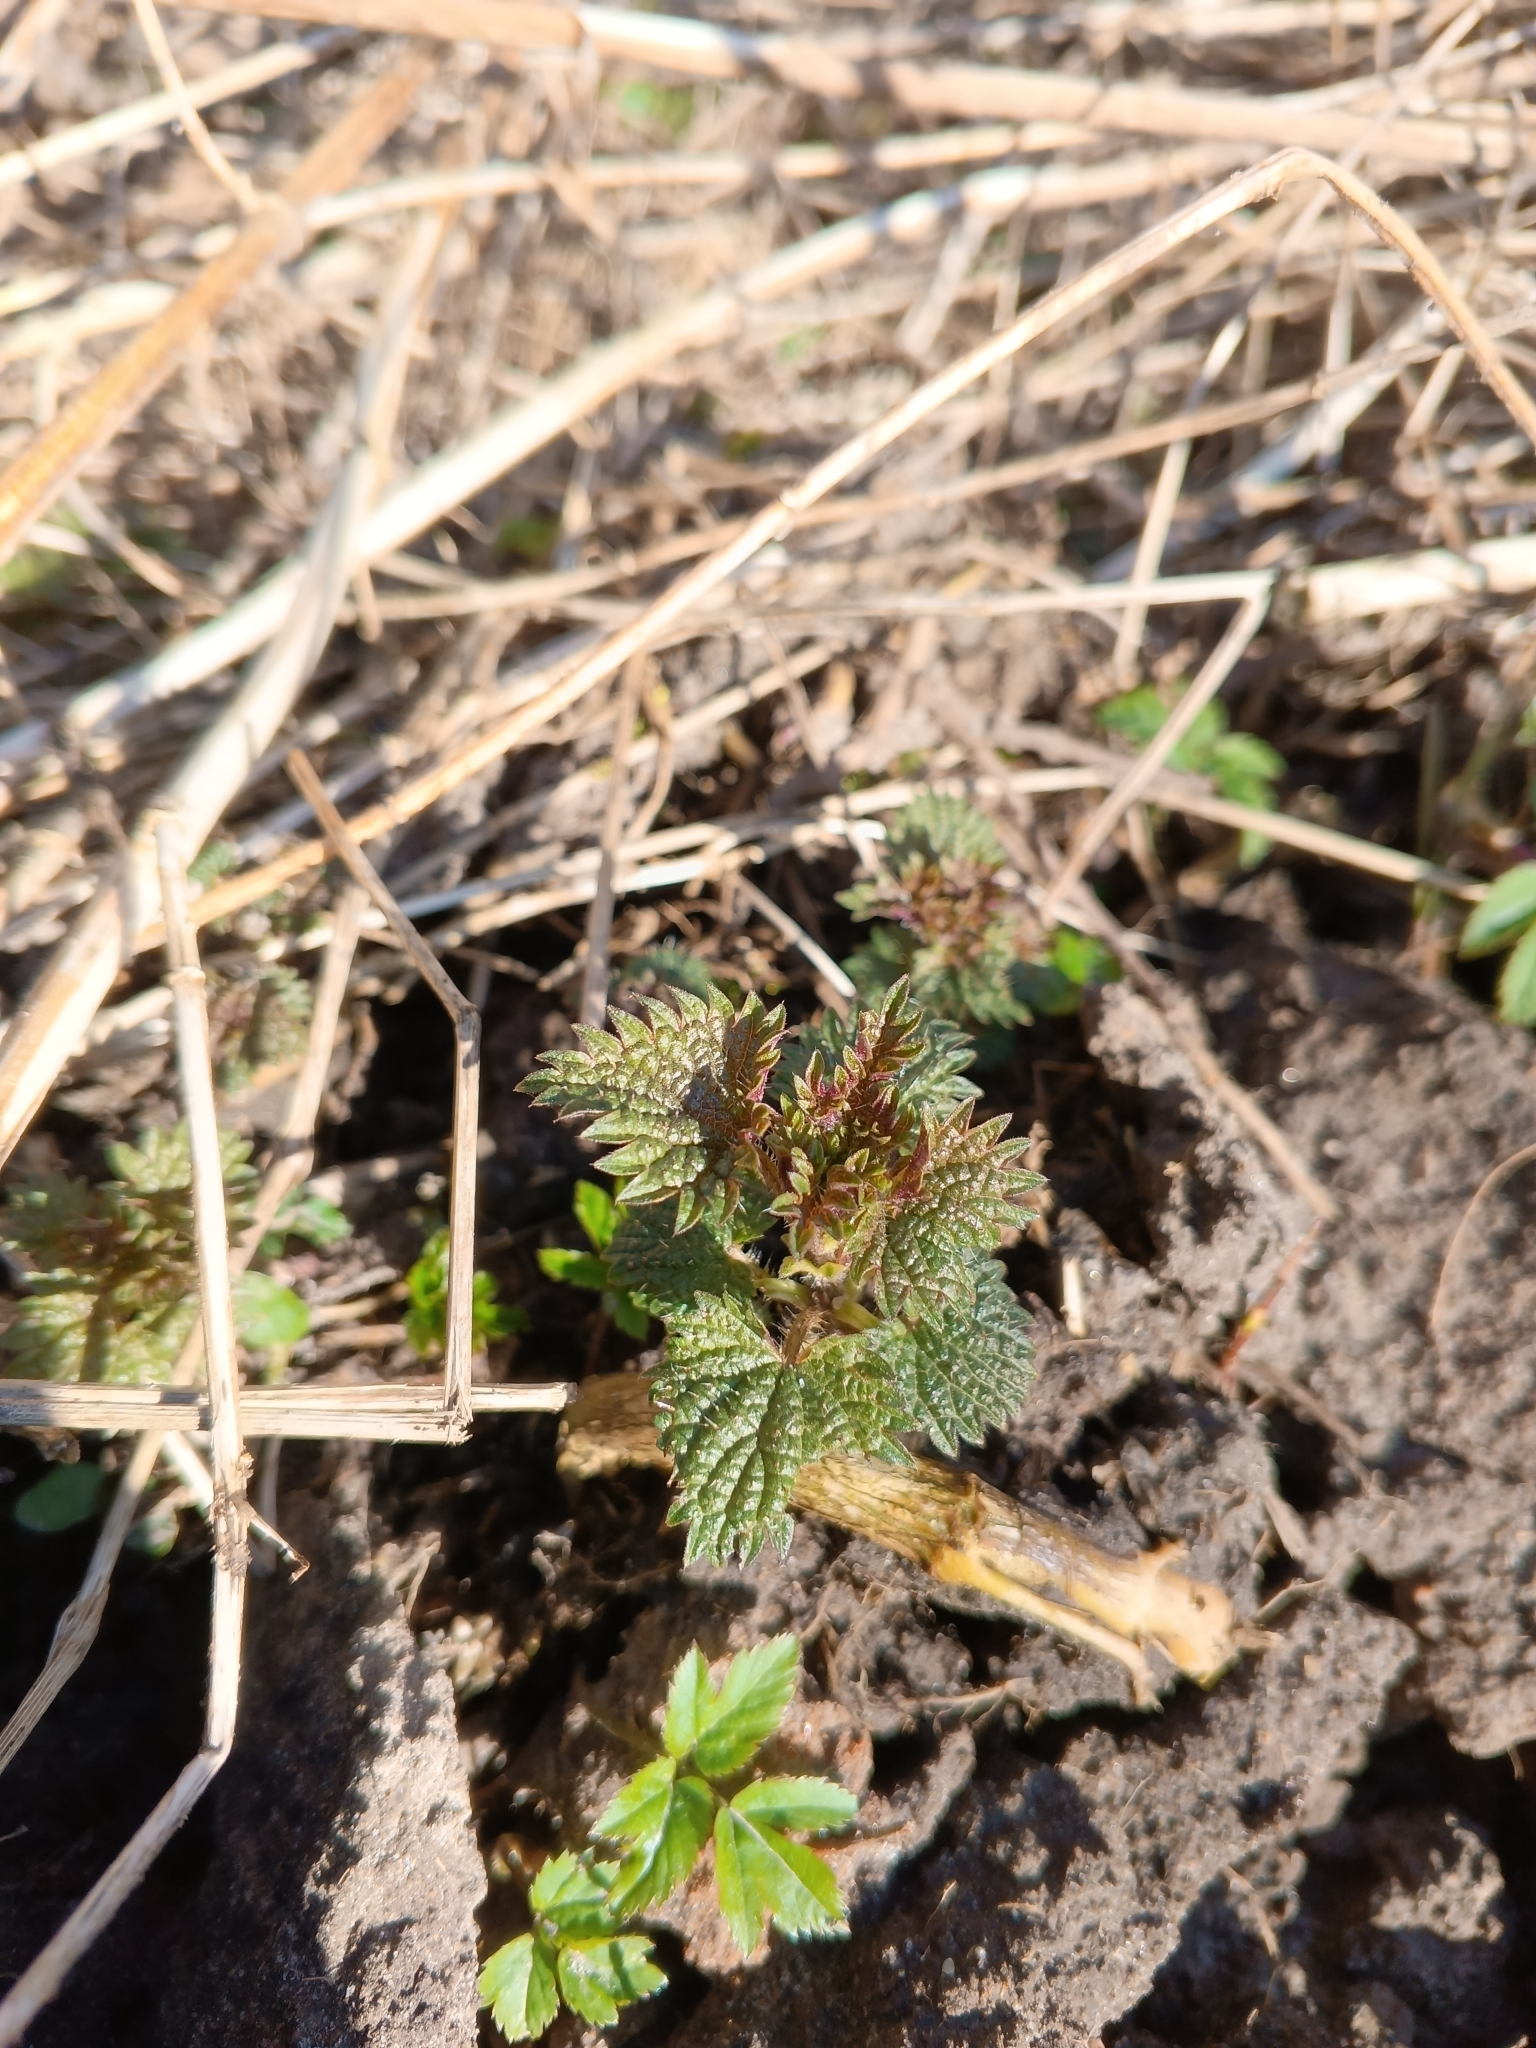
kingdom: Plantae
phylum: Tracheophyta
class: Magnoliopsida
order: Rosales
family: Urticaceae
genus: Urtica
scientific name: Urtica dioica
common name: Common nettle
